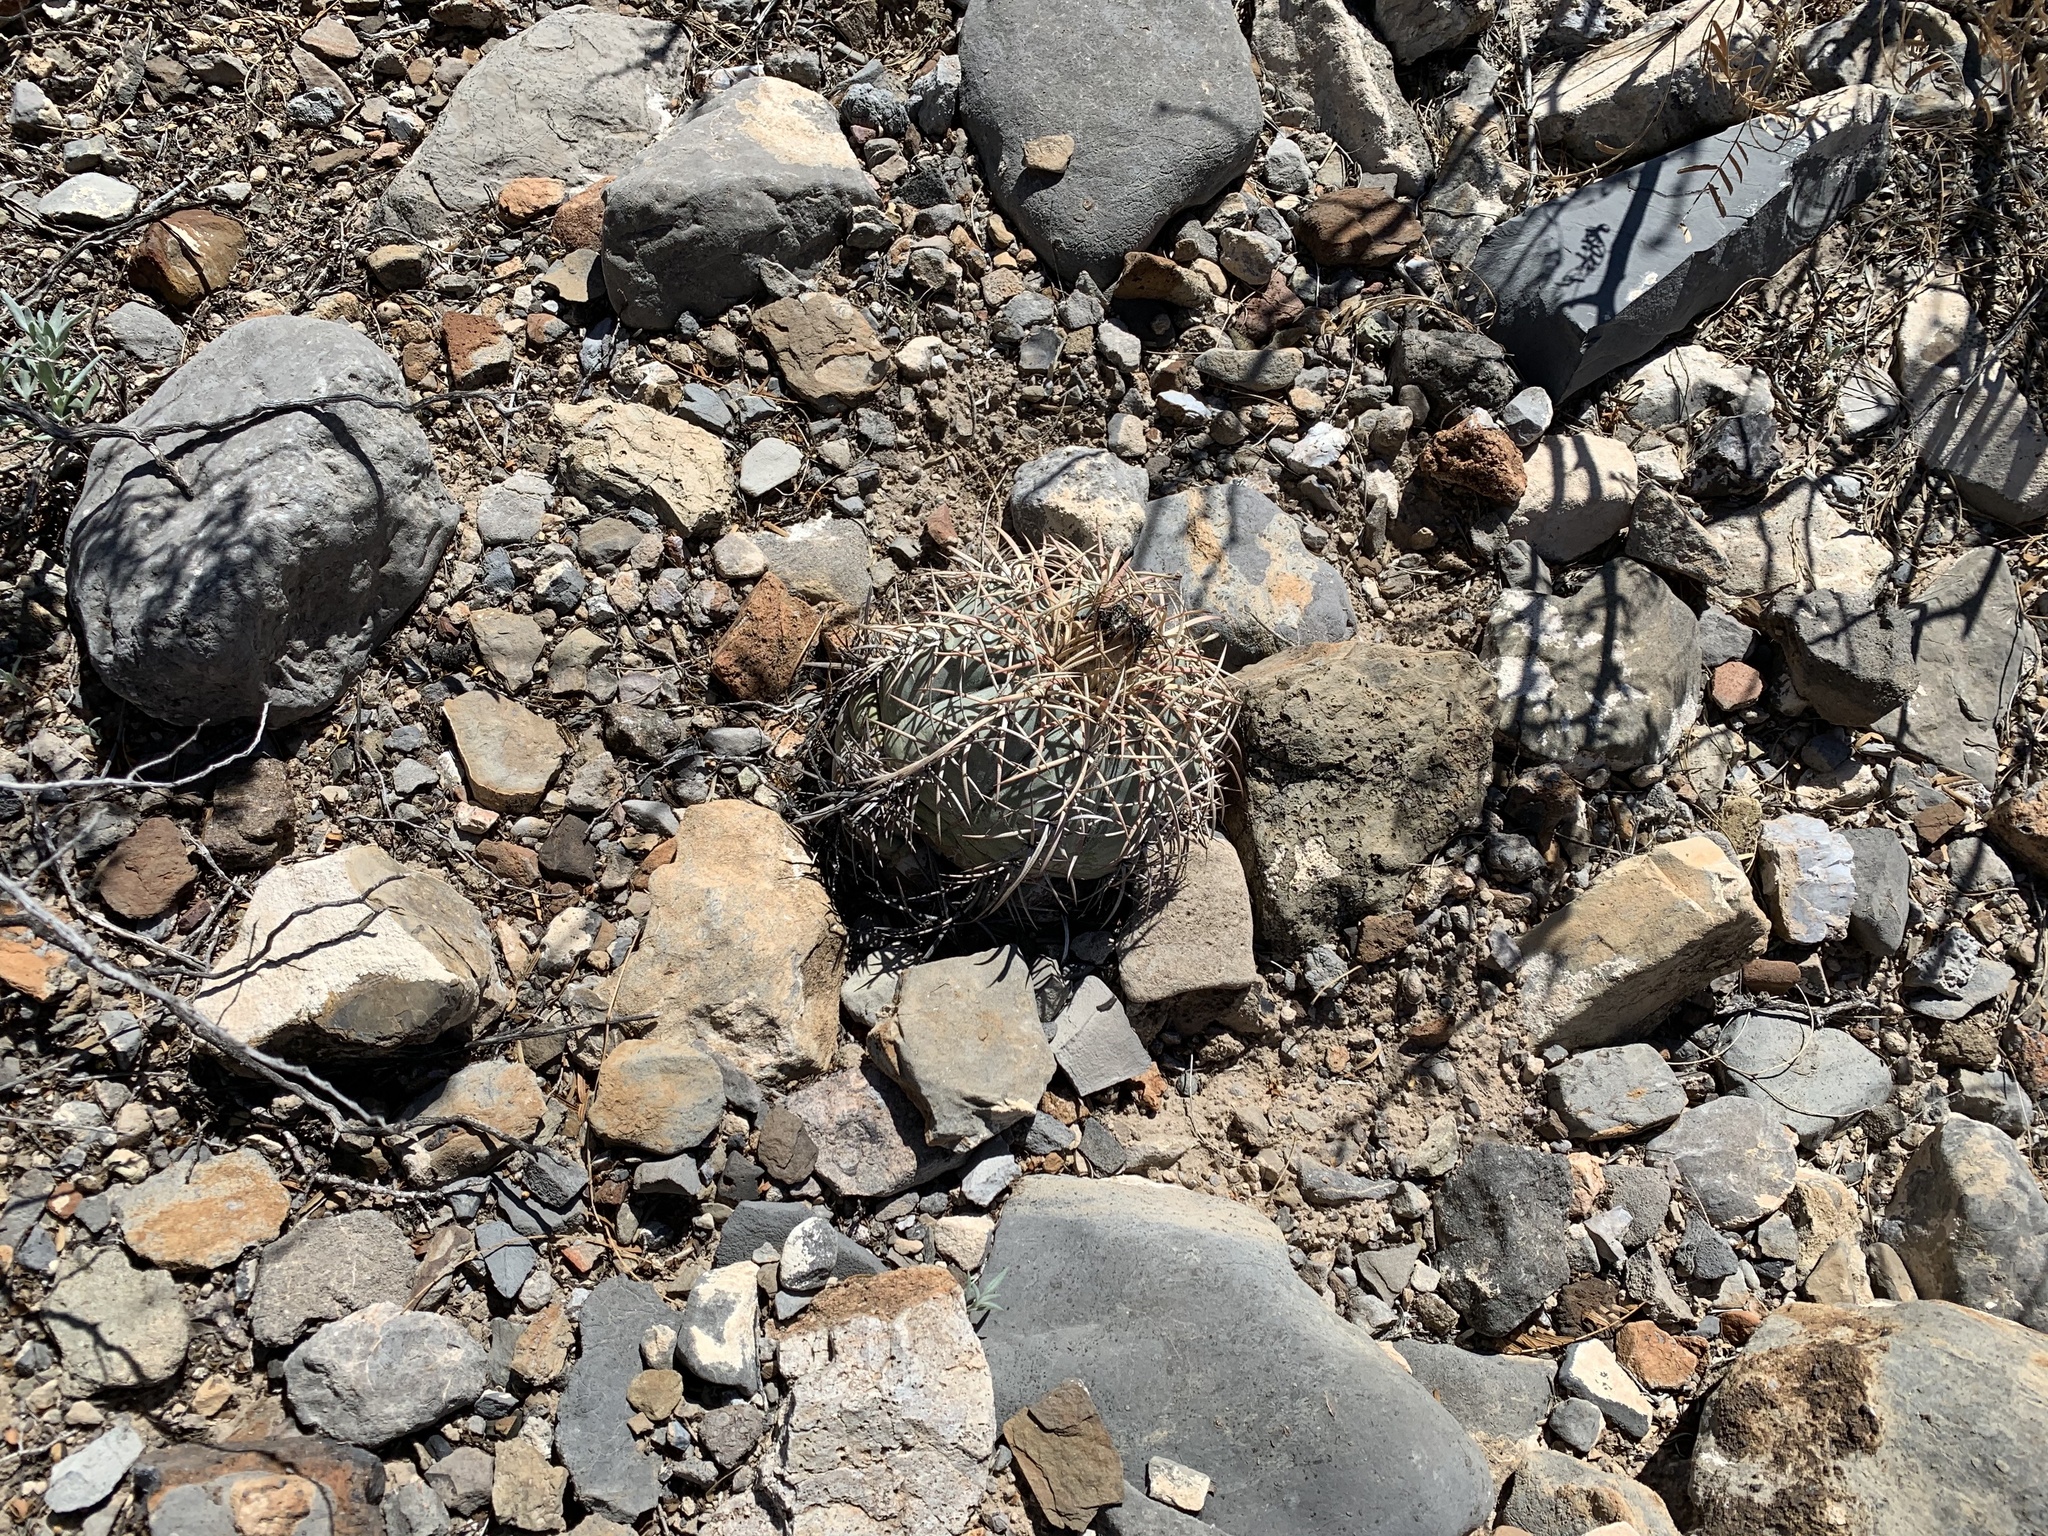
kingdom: Plantae
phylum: Tracheophyta
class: Magnoliopsida
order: Caryophyllales
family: Cactaceae
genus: Echinocactus
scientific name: Echinocactus horizonthalonius
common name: Devilshead
